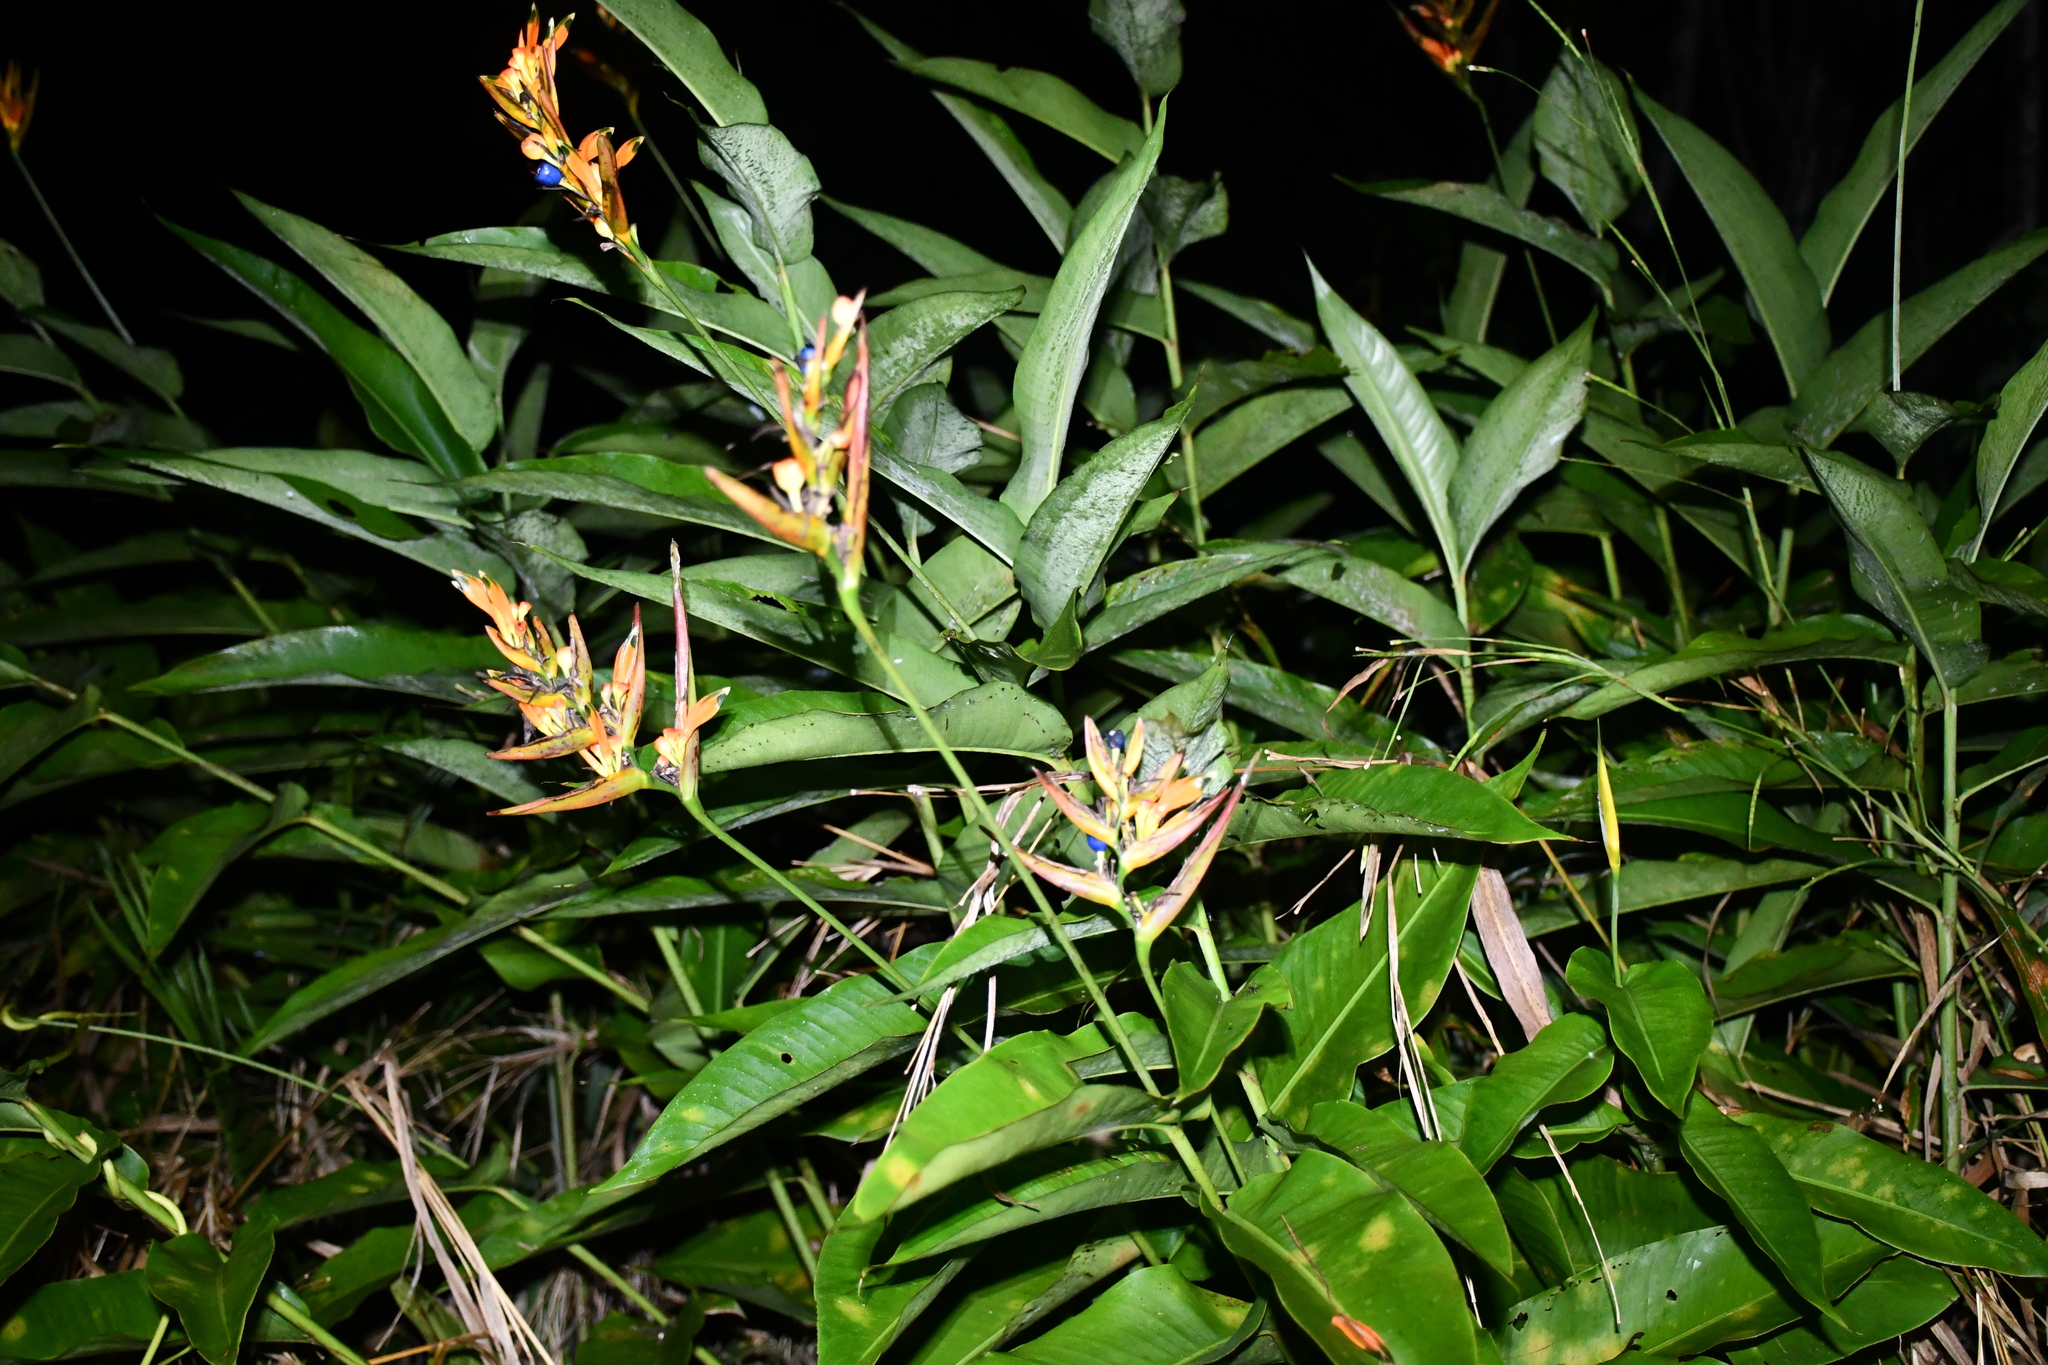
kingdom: Plantae
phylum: Tracheophyta
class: Liliopsida
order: Zingiberales
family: Heliconiaceae
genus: Heliconia
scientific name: Heliconia psittacorum
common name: Parrot's-flower
